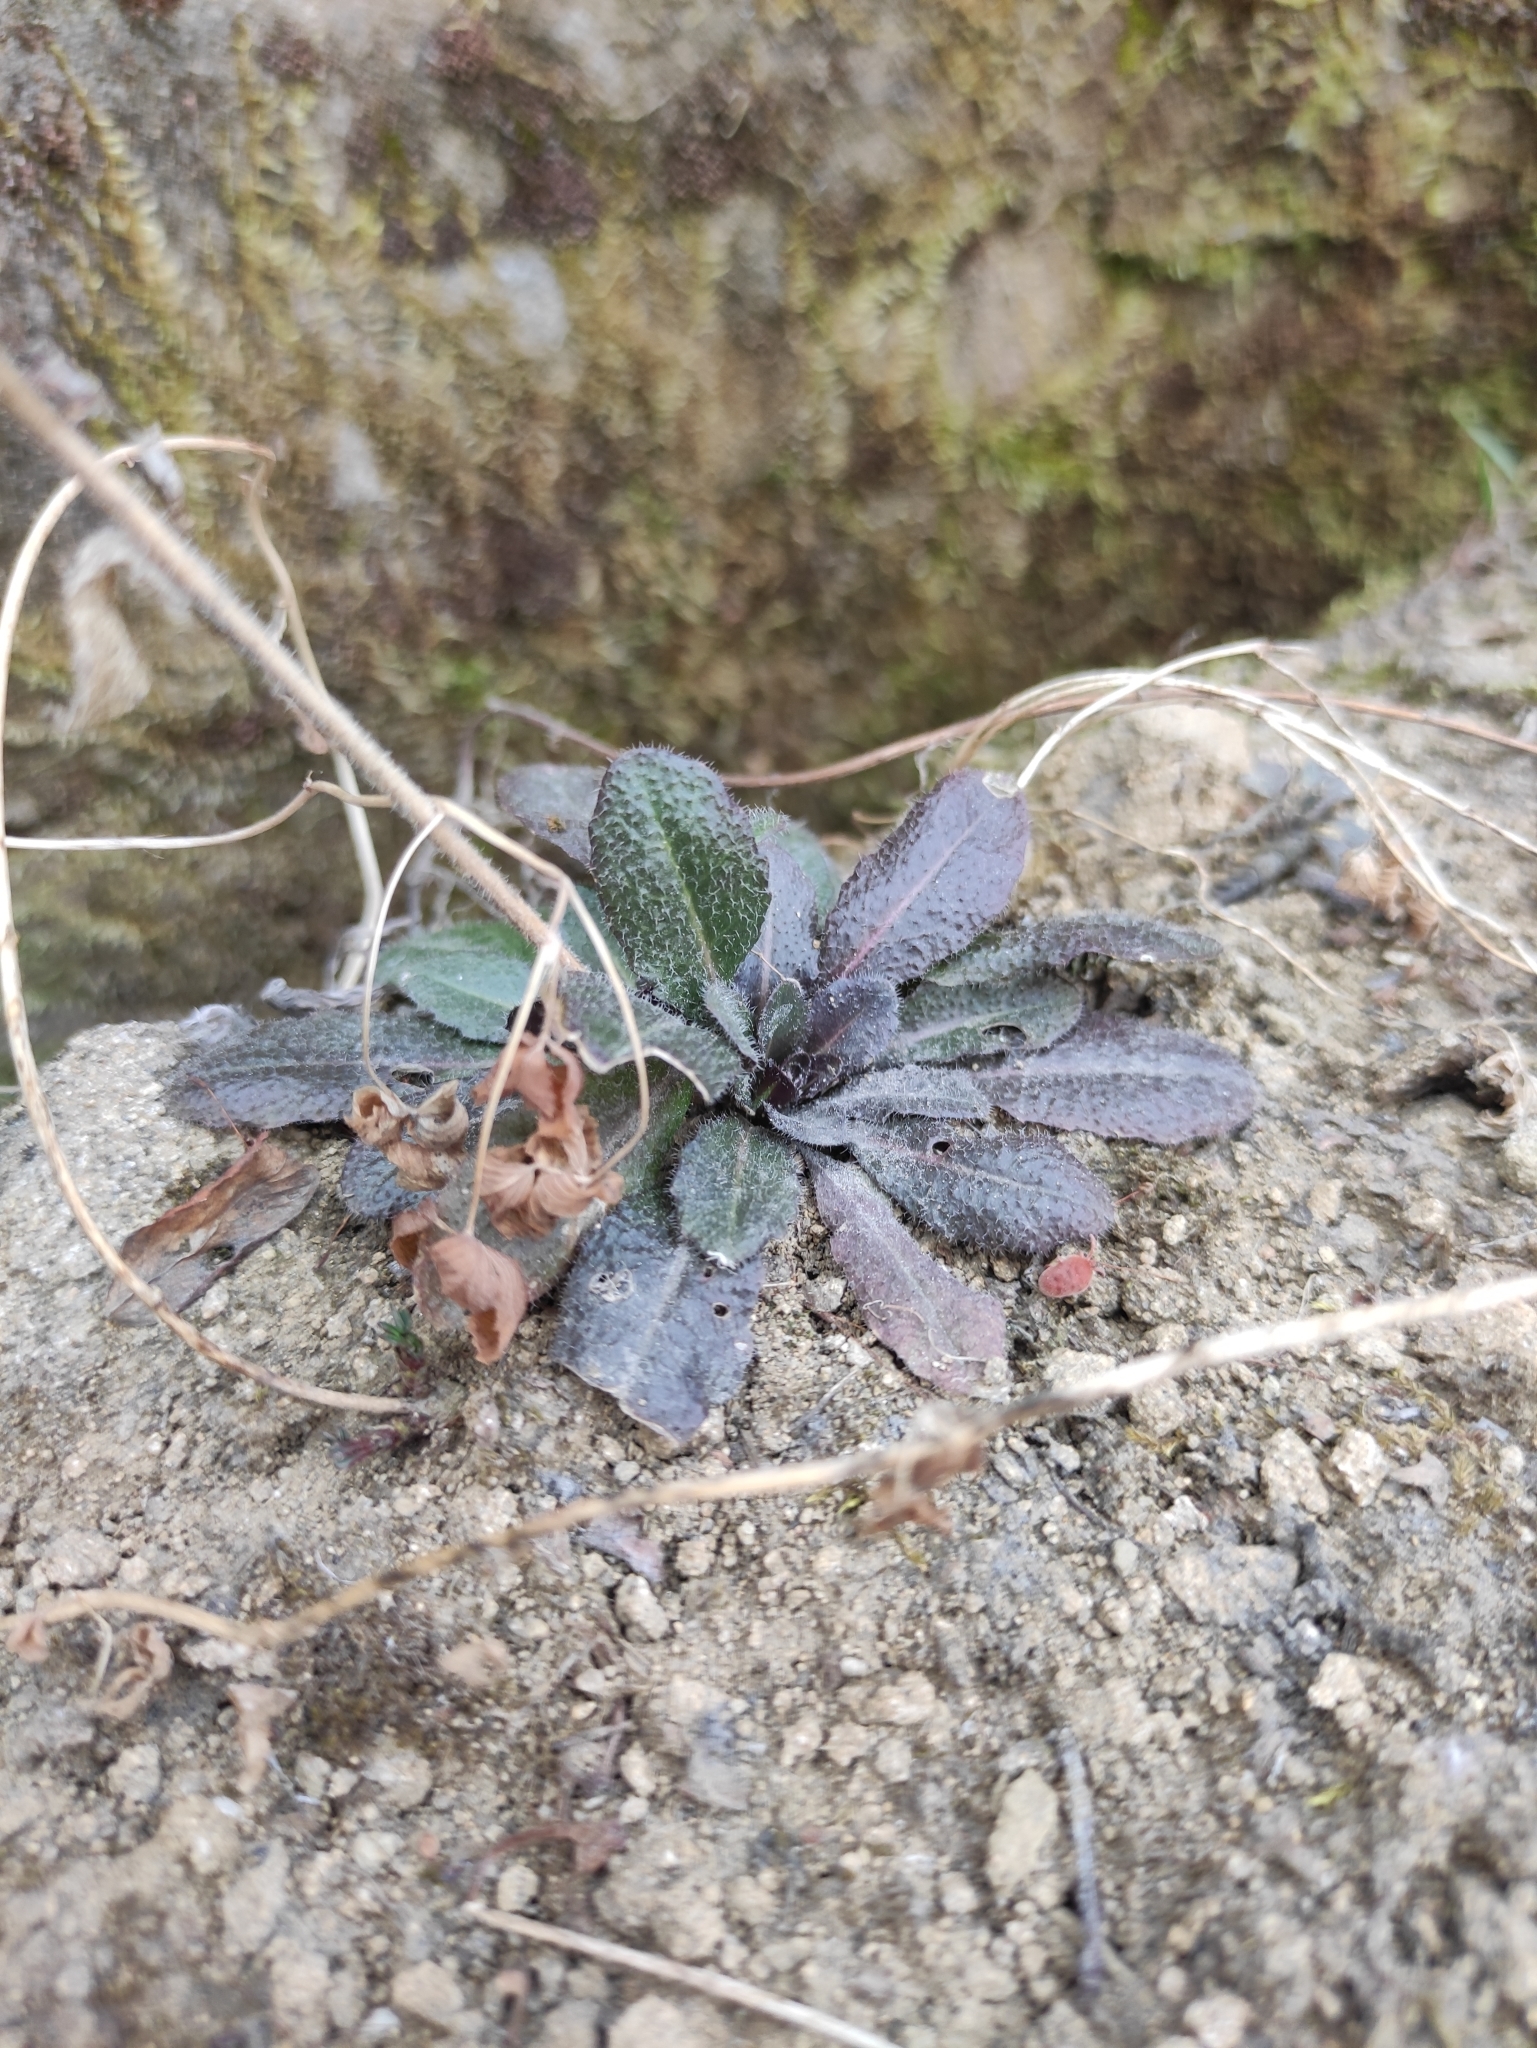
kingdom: Plantae
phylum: Tracheophyta
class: Magnoliopsida
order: Brassicales
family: Brassicaceae
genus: Arabis
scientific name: Arabis borealis
